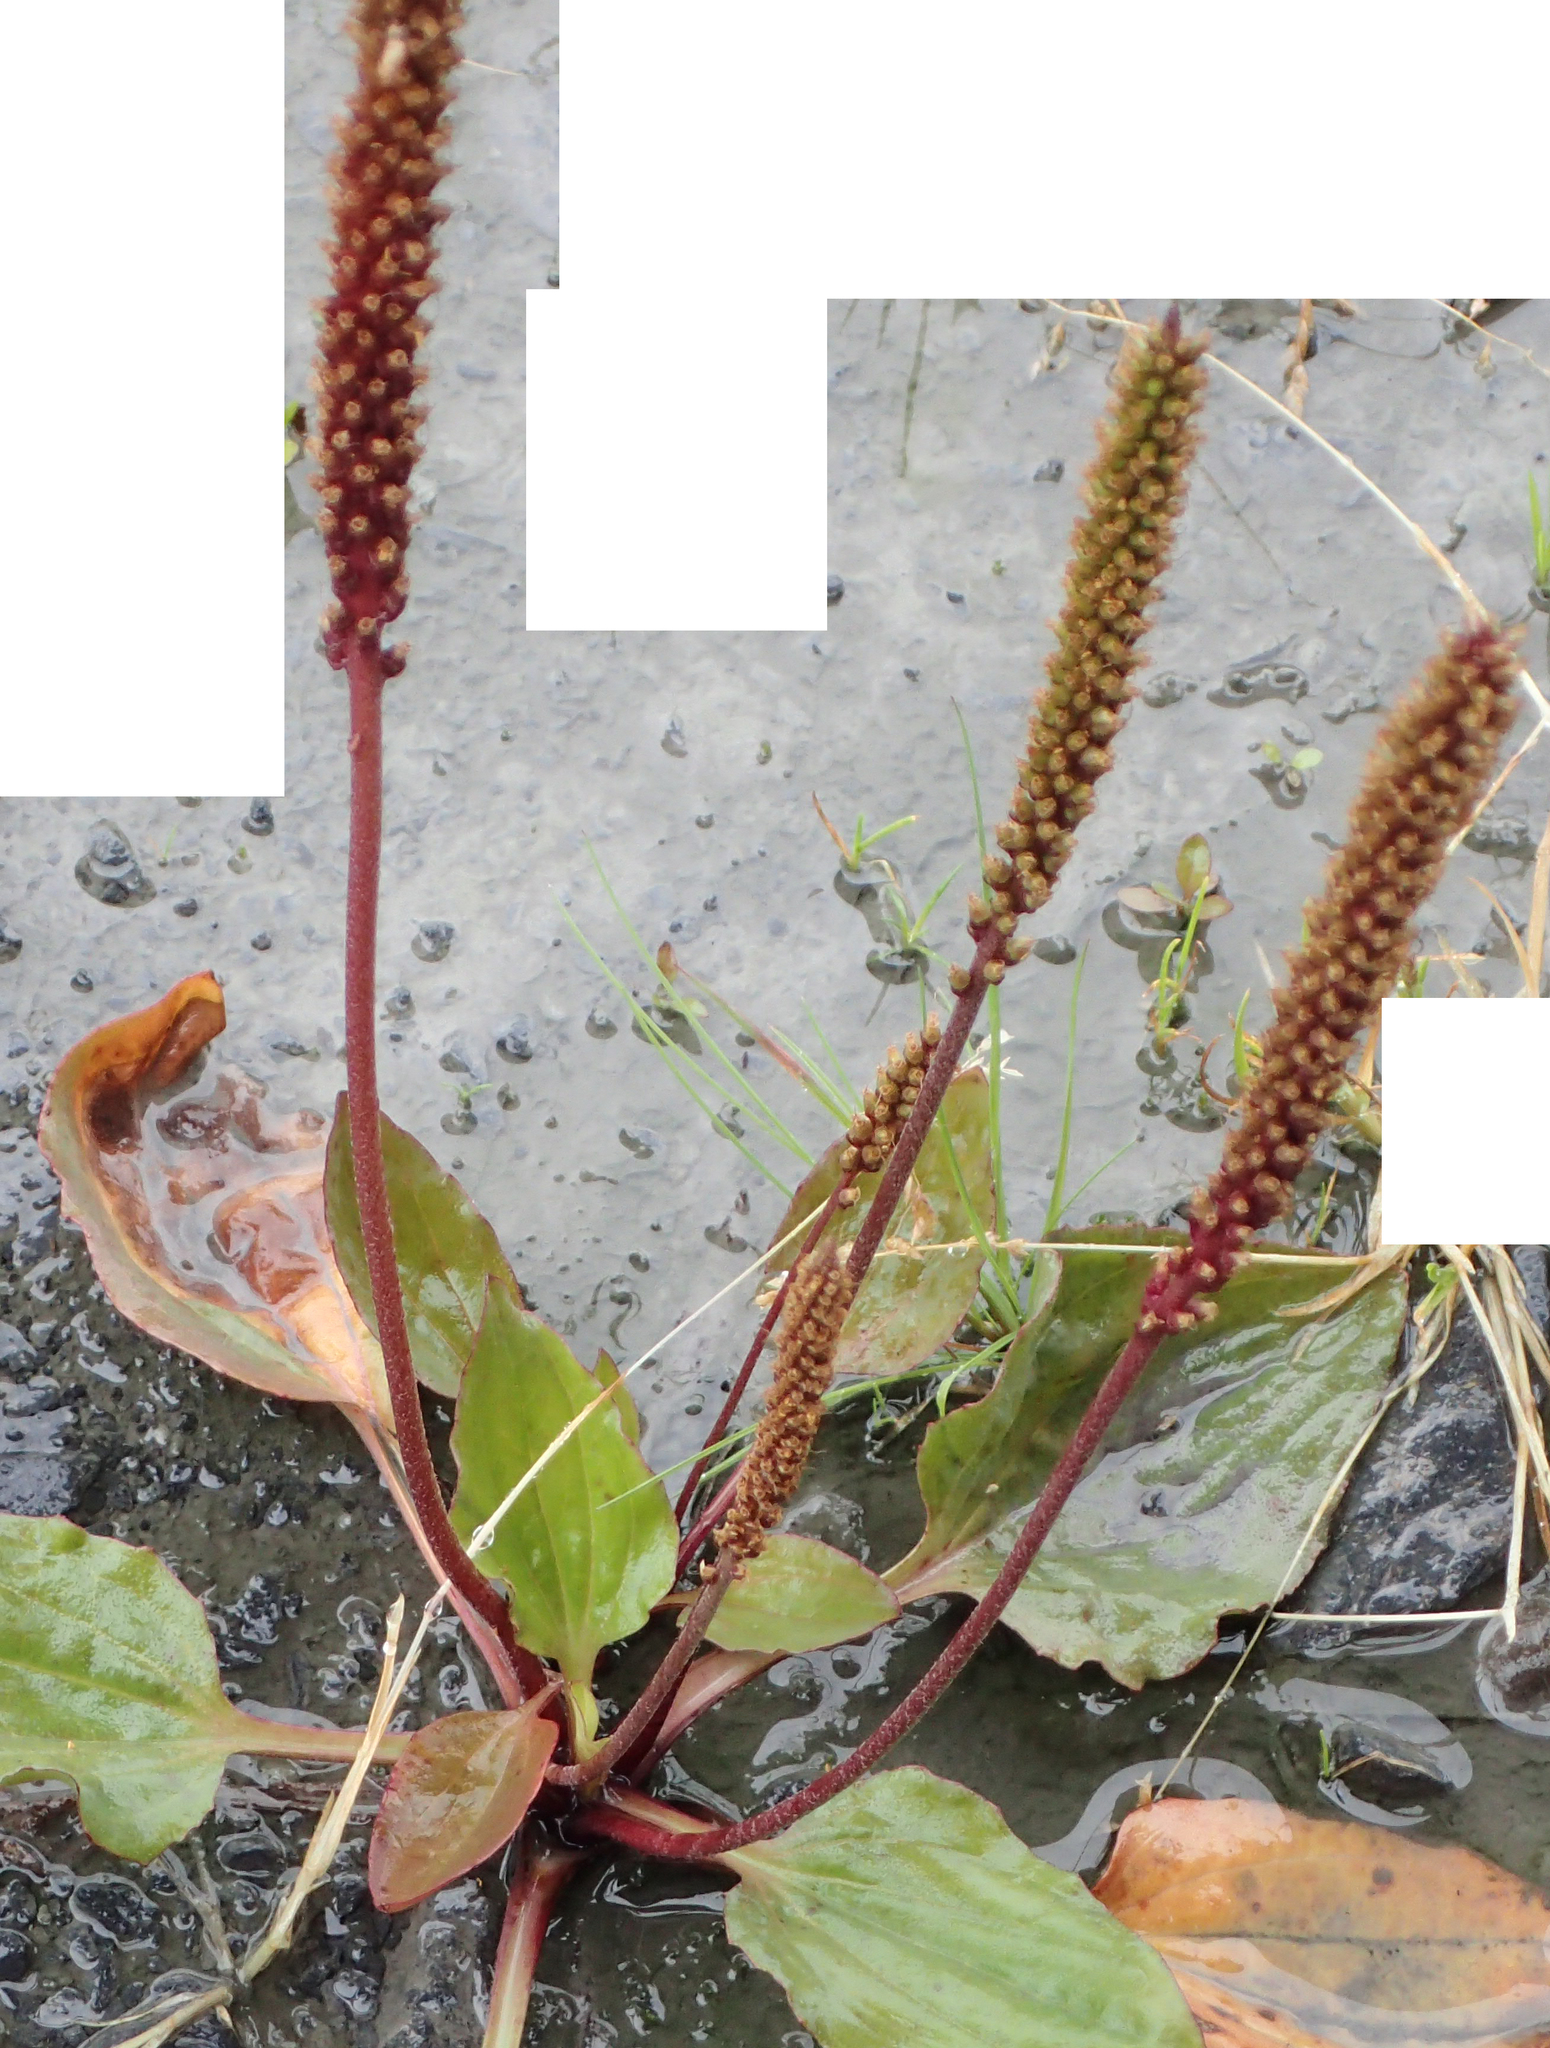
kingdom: Plantae
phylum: Tracheophyta
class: Magnoliopsida
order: Lamiales
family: Plantaginaceae
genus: Plantago
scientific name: Plantago major
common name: Common plantain
